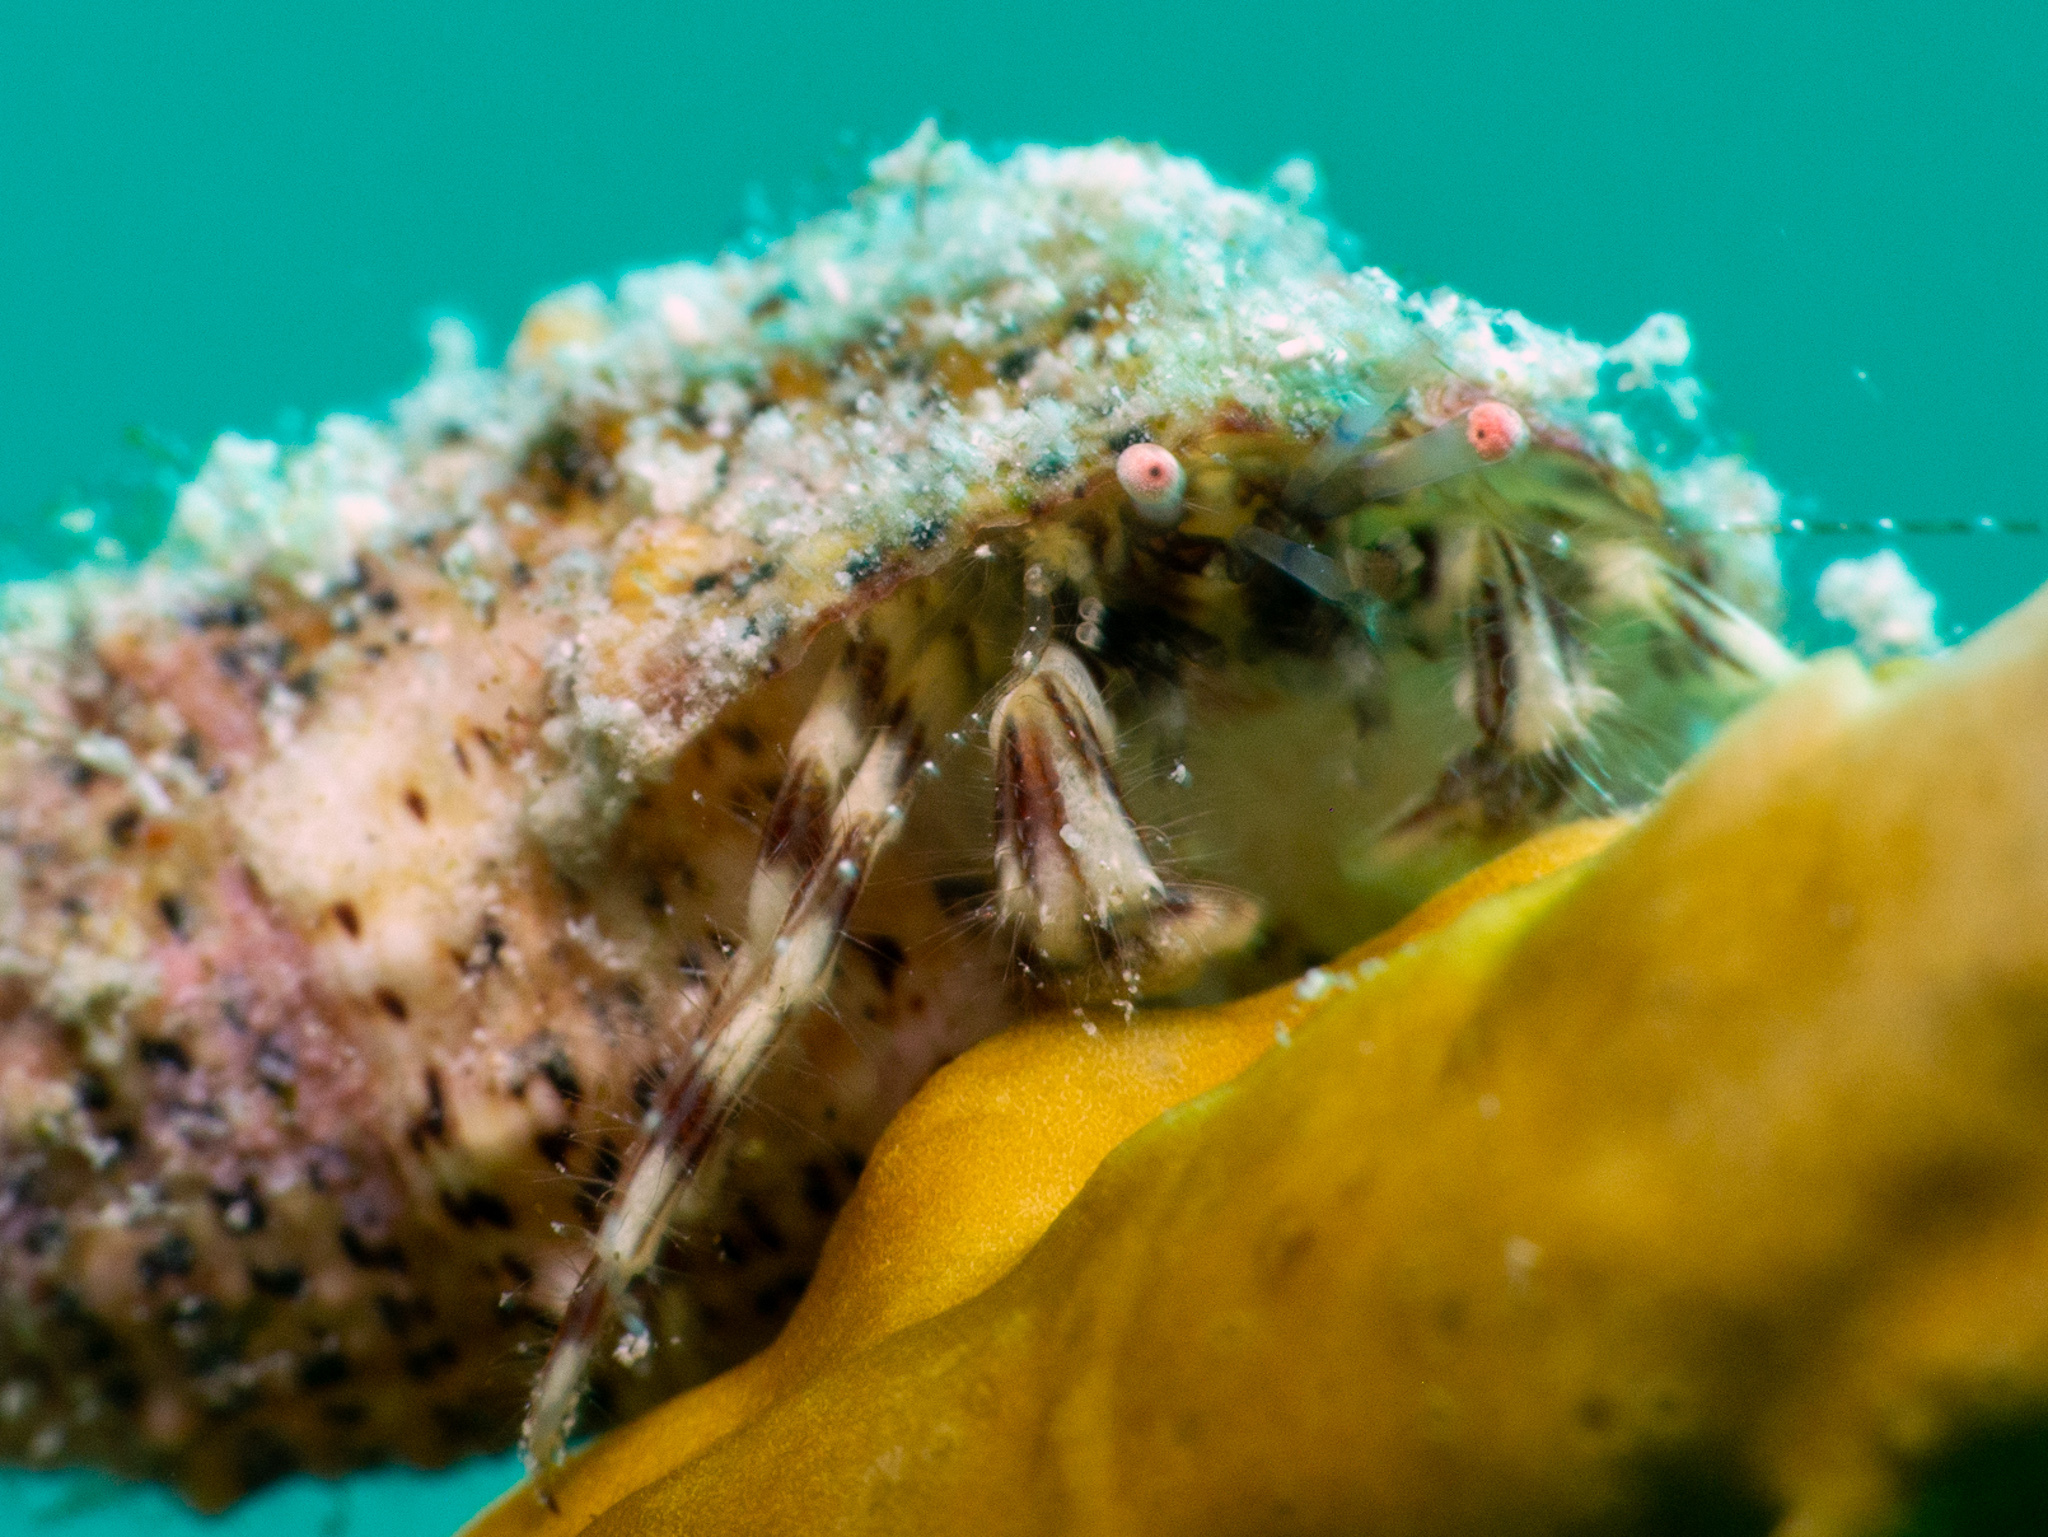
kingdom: Animalia
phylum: Arthropoda
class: Malacostraca
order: Decapoda
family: Paguridae
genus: Pagurus
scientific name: Pagurus brevidactylus
